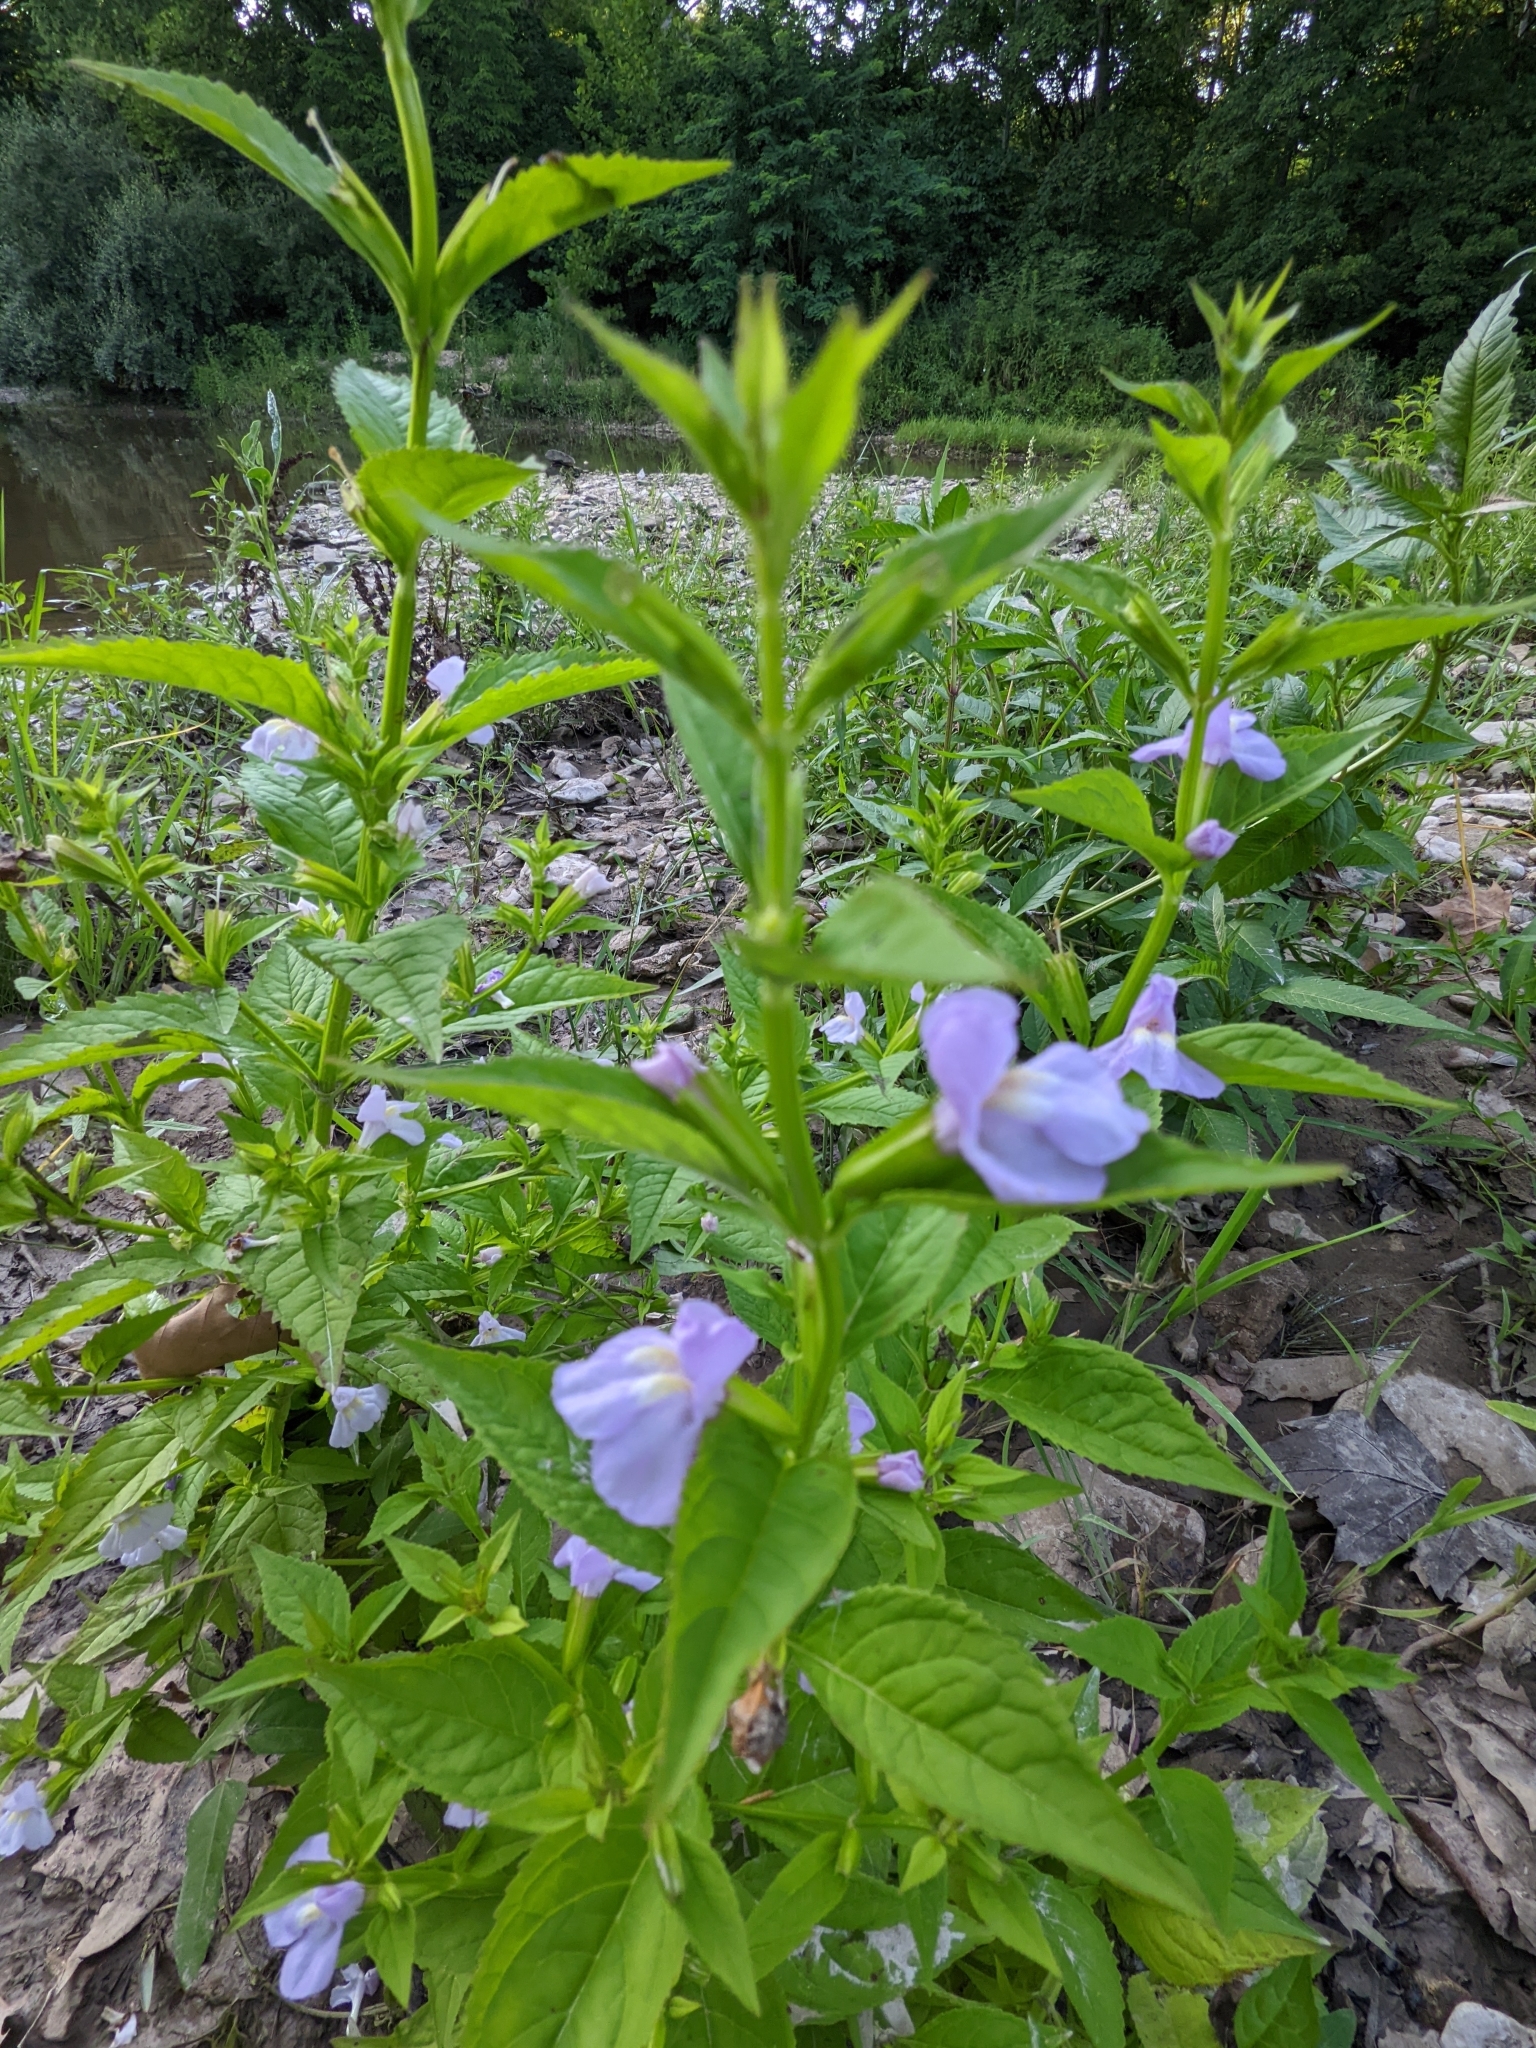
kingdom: Plantae
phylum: Tracheophyta
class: Magnoliopsida
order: Lamiales
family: Phrymaceae
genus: Mimulus
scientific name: Mimulus alatus
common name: Sharp-wing monkey-flower
